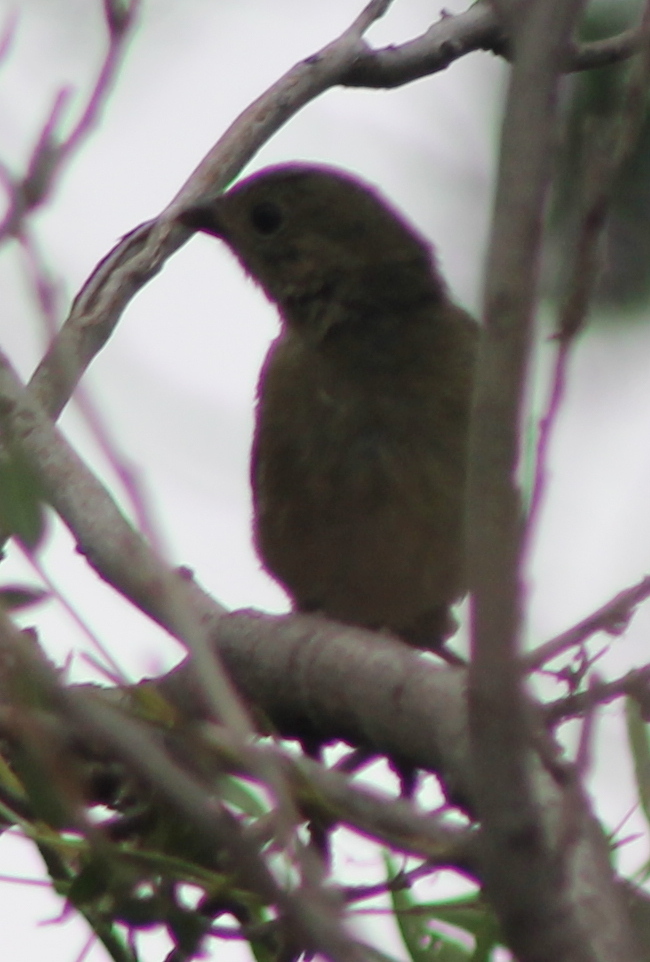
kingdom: Animalia
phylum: Chordata
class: Aves
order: Passeriformes
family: Cardinalidae
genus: Passerina
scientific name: Passerina ciris
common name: Painted bunting
